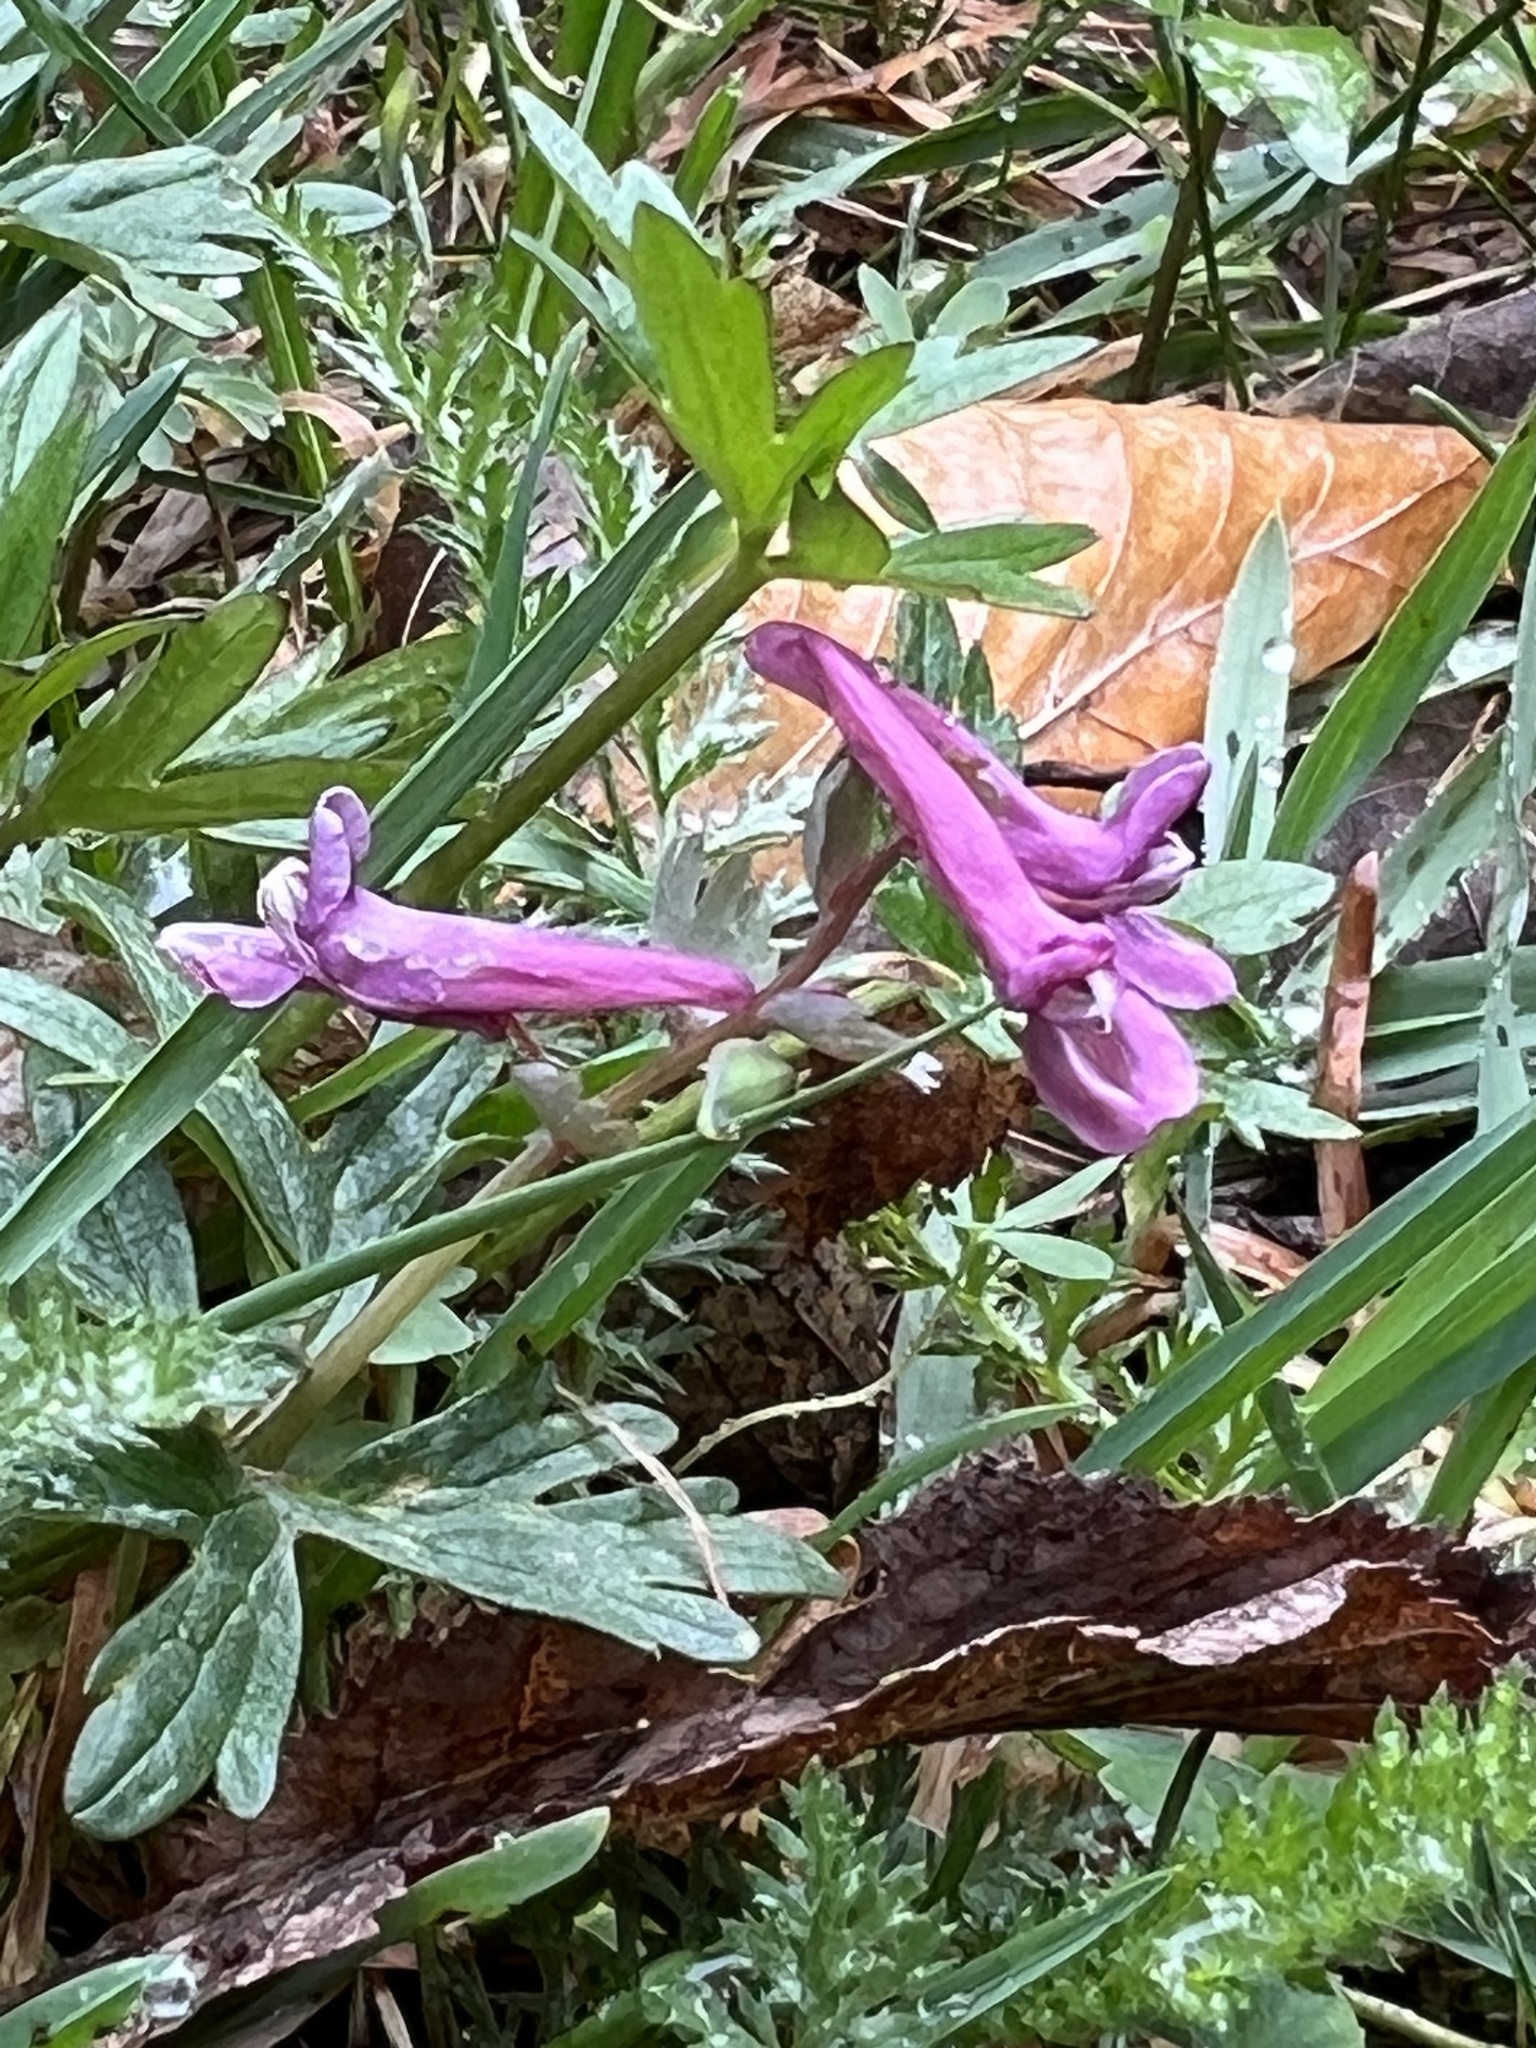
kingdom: Plantae
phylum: Tracheophyta
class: Magnoliopsida
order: Ranunculales
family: Papaveraceae
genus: Corydalis
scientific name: Corydalis solida
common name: Bird-in-a-bush
